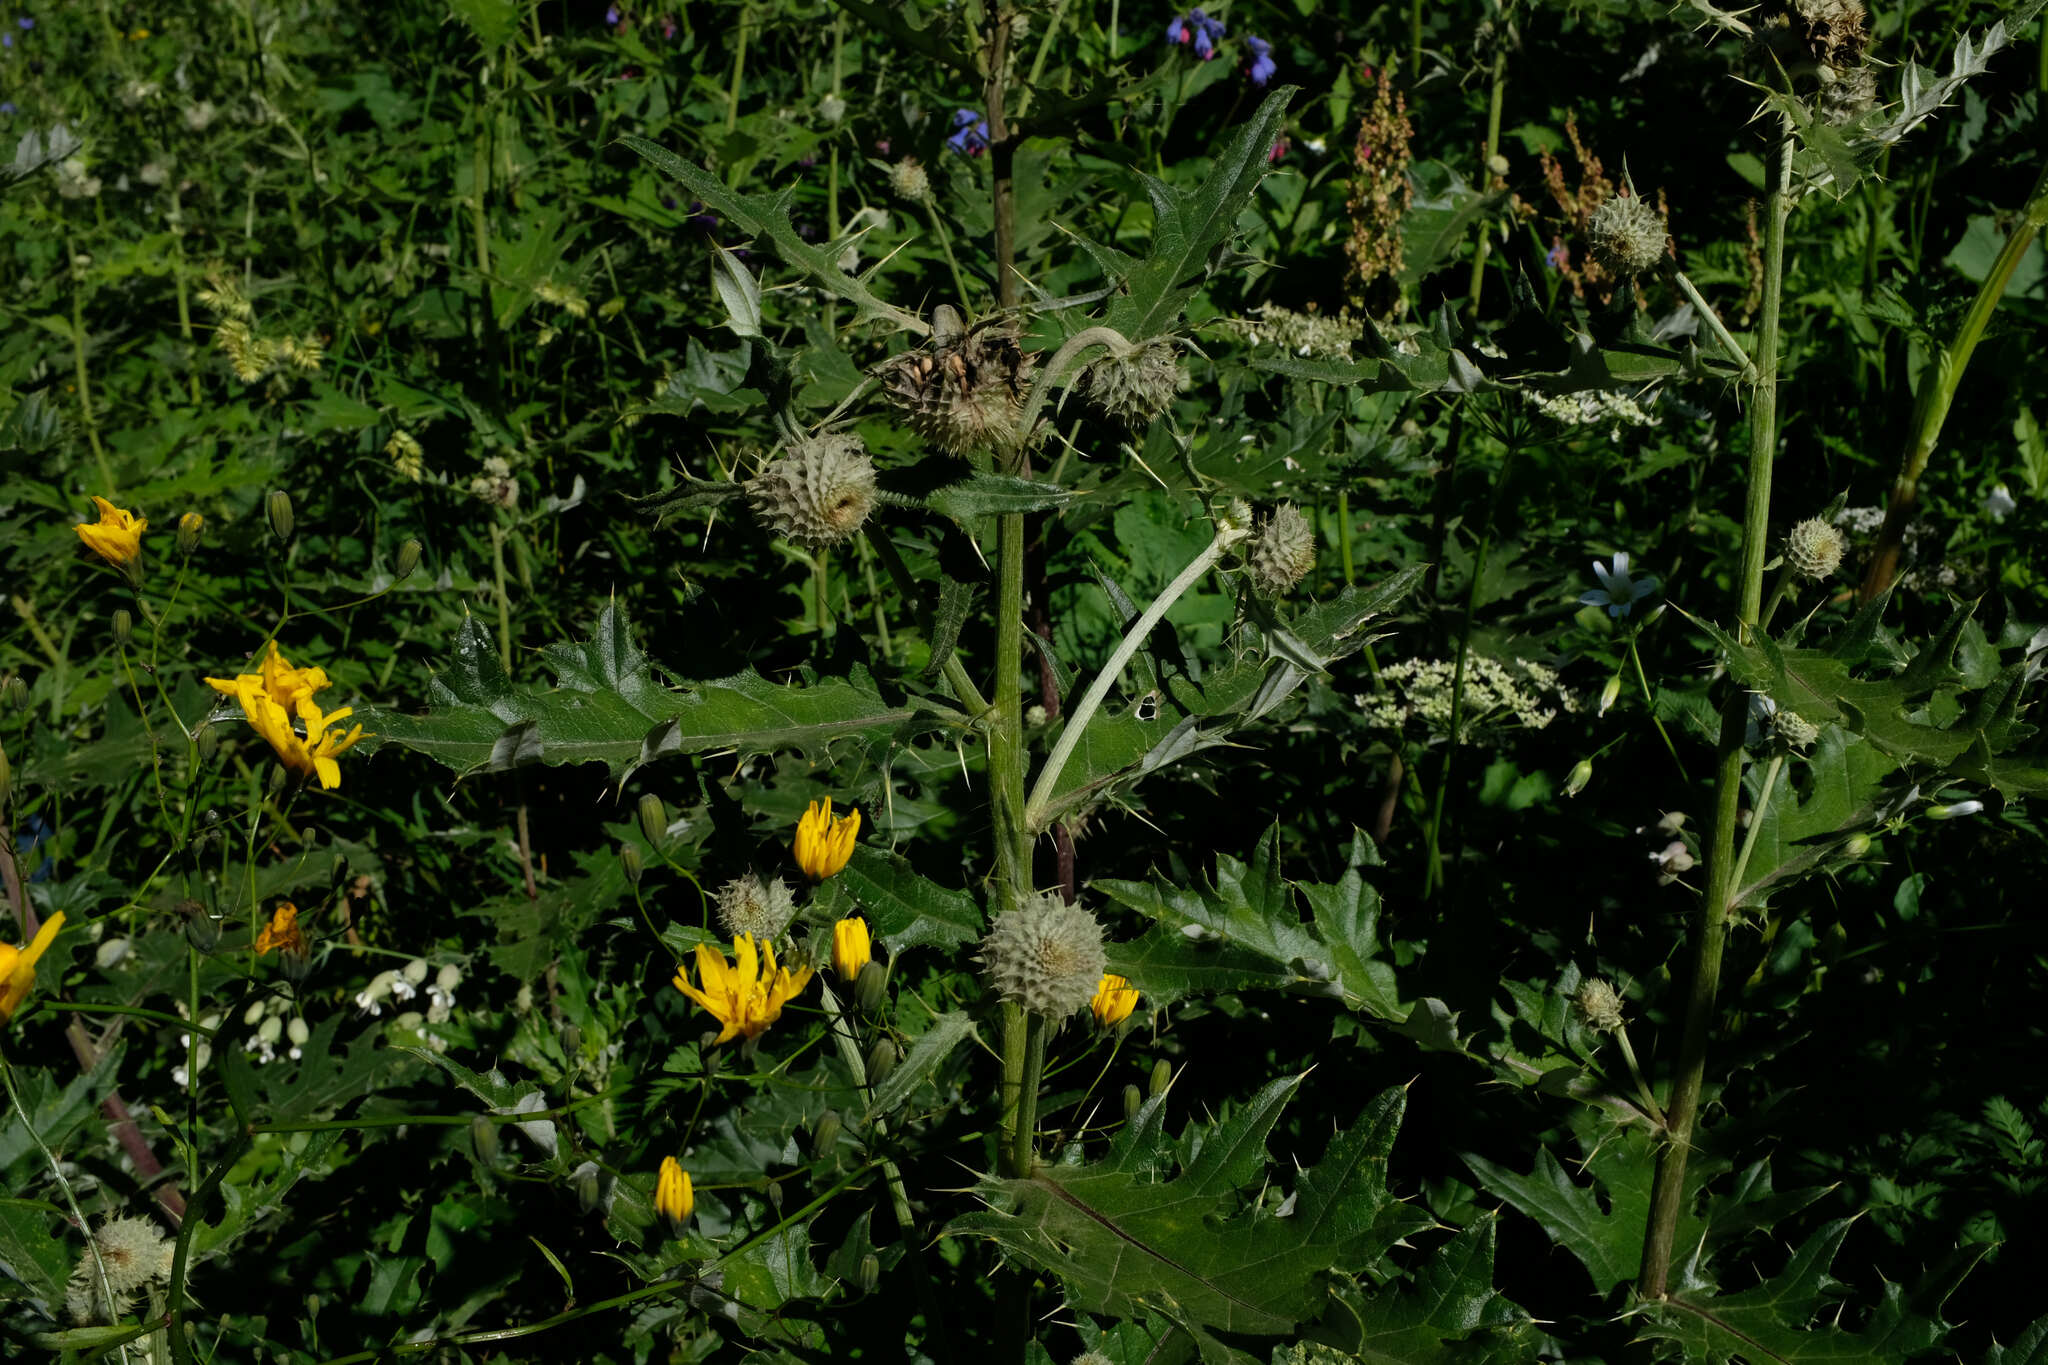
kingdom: Plantae
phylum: Tracheophyta
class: Magnoliopsida
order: Asterales
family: Asteraceae
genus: Lophiolepis
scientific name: Lophiolepis chlorocoma
